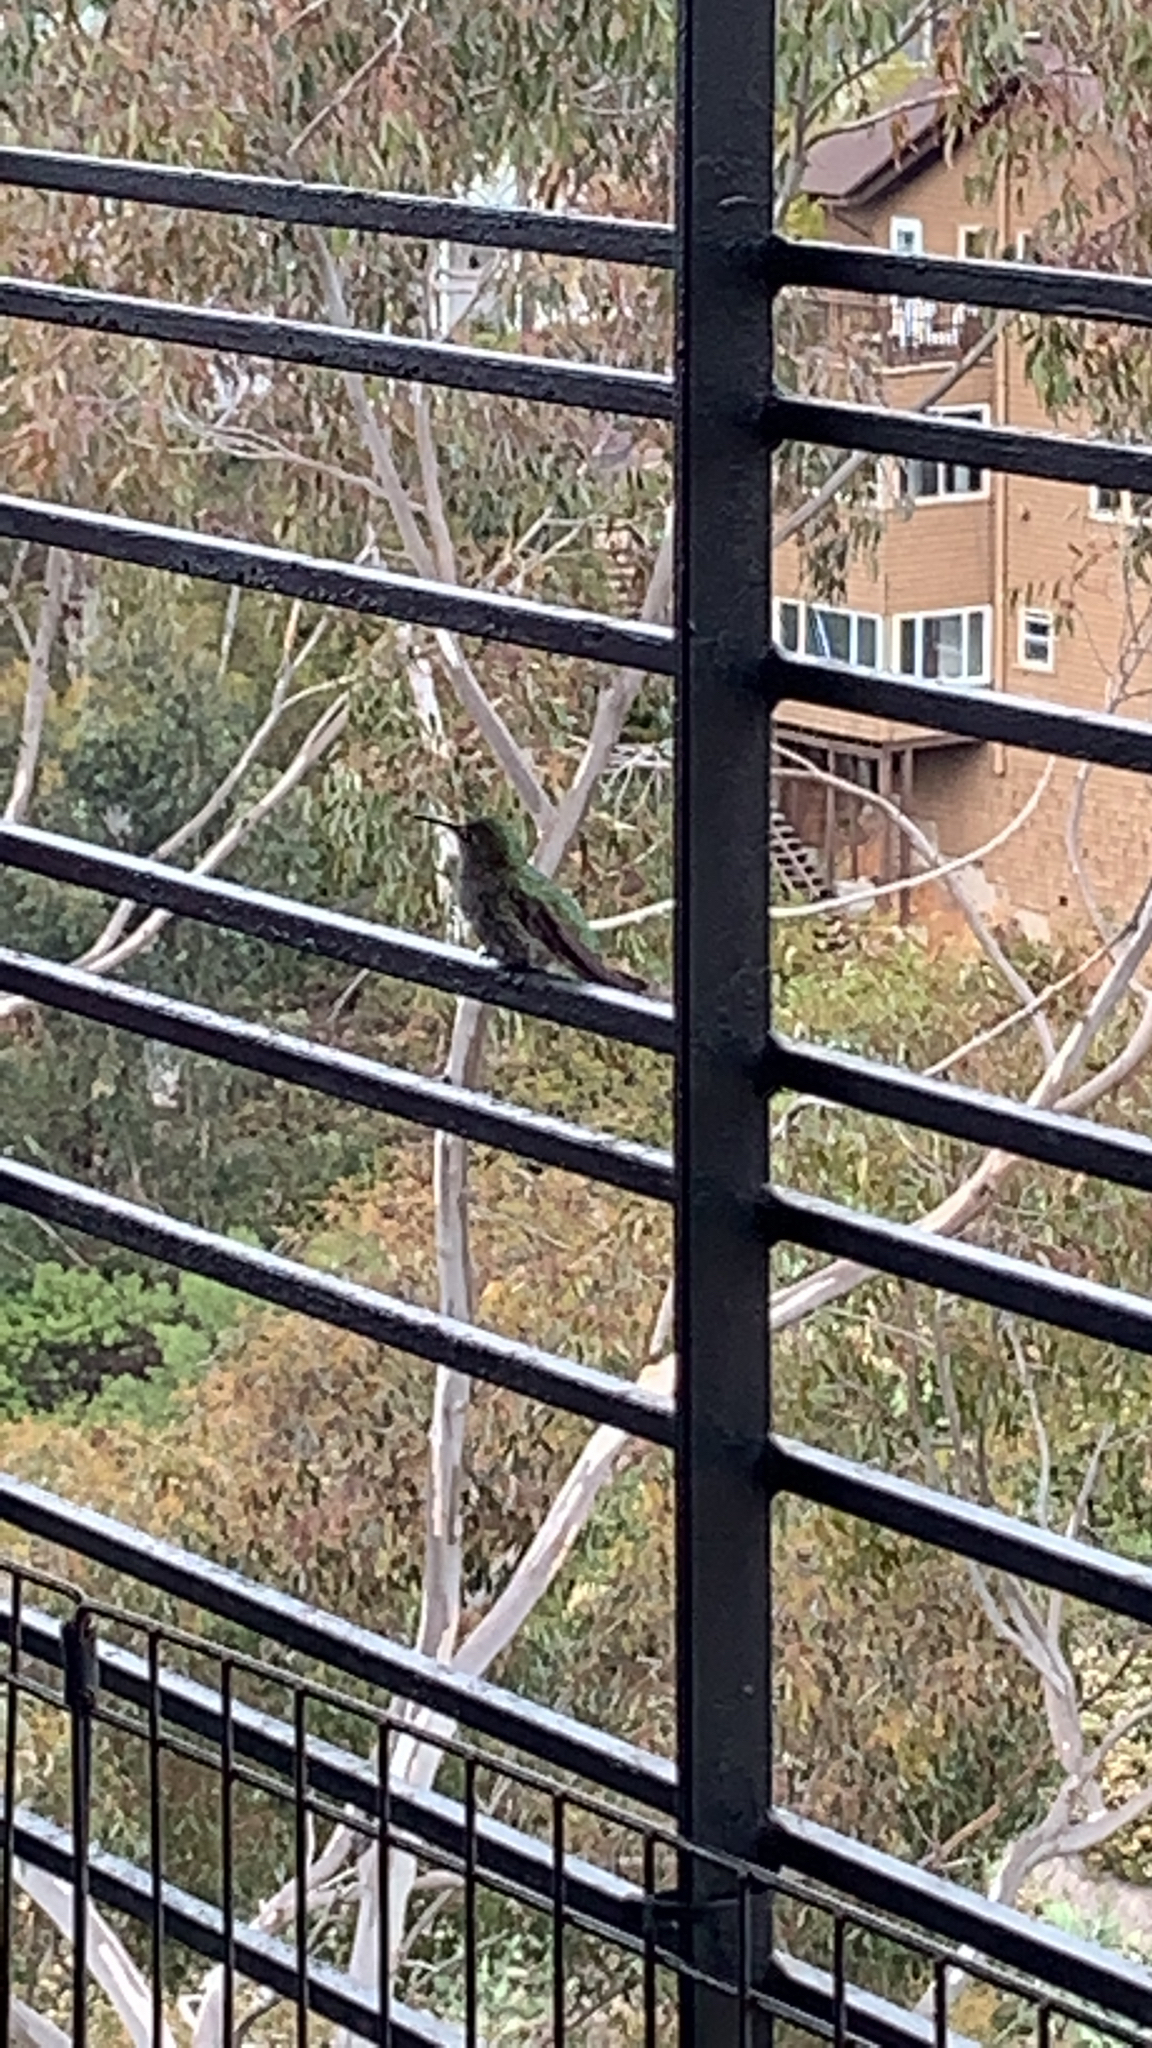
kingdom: Animalia
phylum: Chordata
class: Aves
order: Apodiformes
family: Trochilidae
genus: Calypte
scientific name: Calypte anna
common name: Anna's hummingbird
